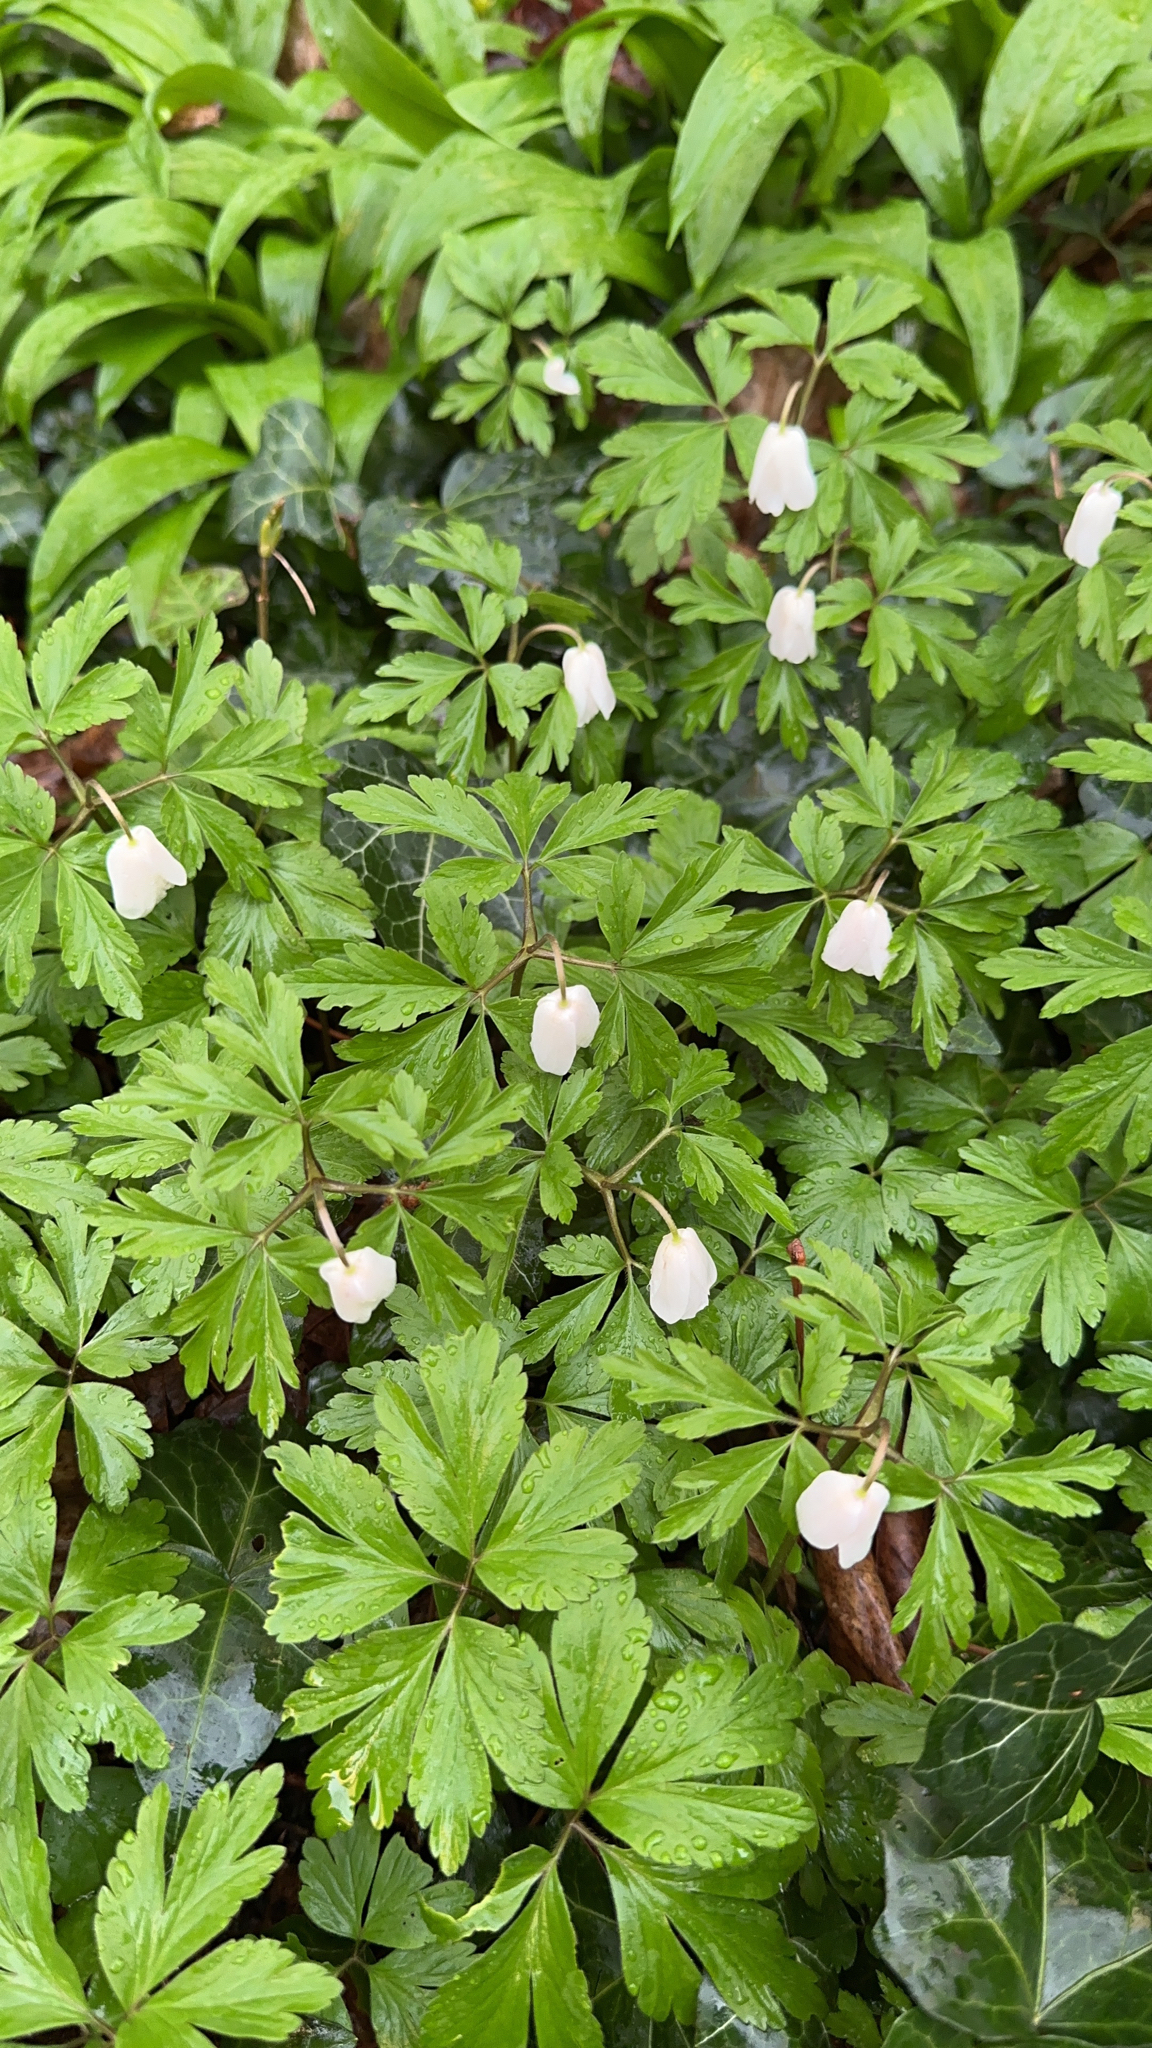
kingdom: Plantae
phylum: Tracheophyta
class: Magnoliopsida
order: Ranunculales
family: Ranunculaceae
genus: Anemone
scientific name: Anemone nemorosa
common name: Wood anemone
